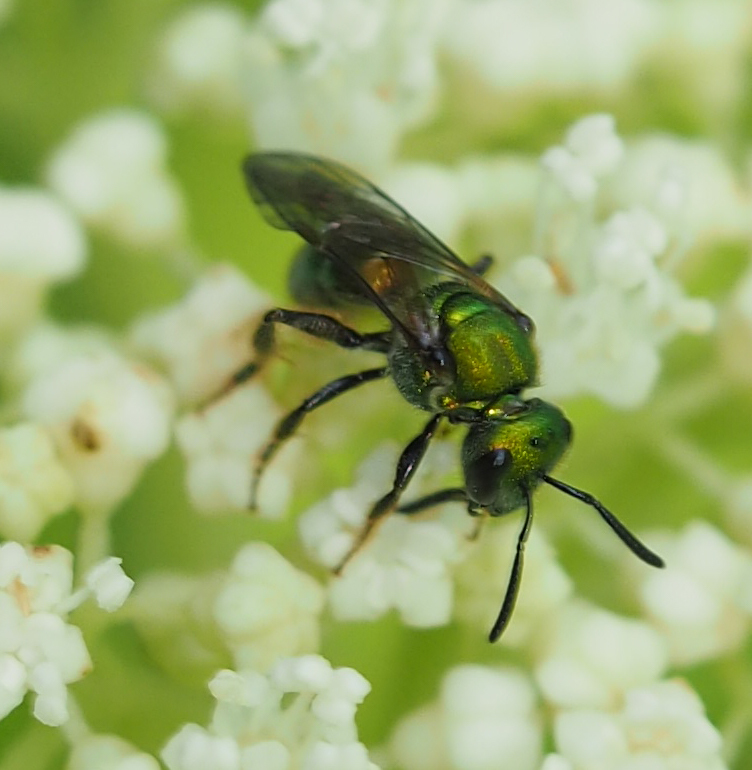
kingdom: Animalia
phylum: Arthropoda
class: Insecta
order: Hymenoptera
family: Halictidae
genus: Augochlora
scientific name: Augochlora pura
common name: Pure green sweat bee
